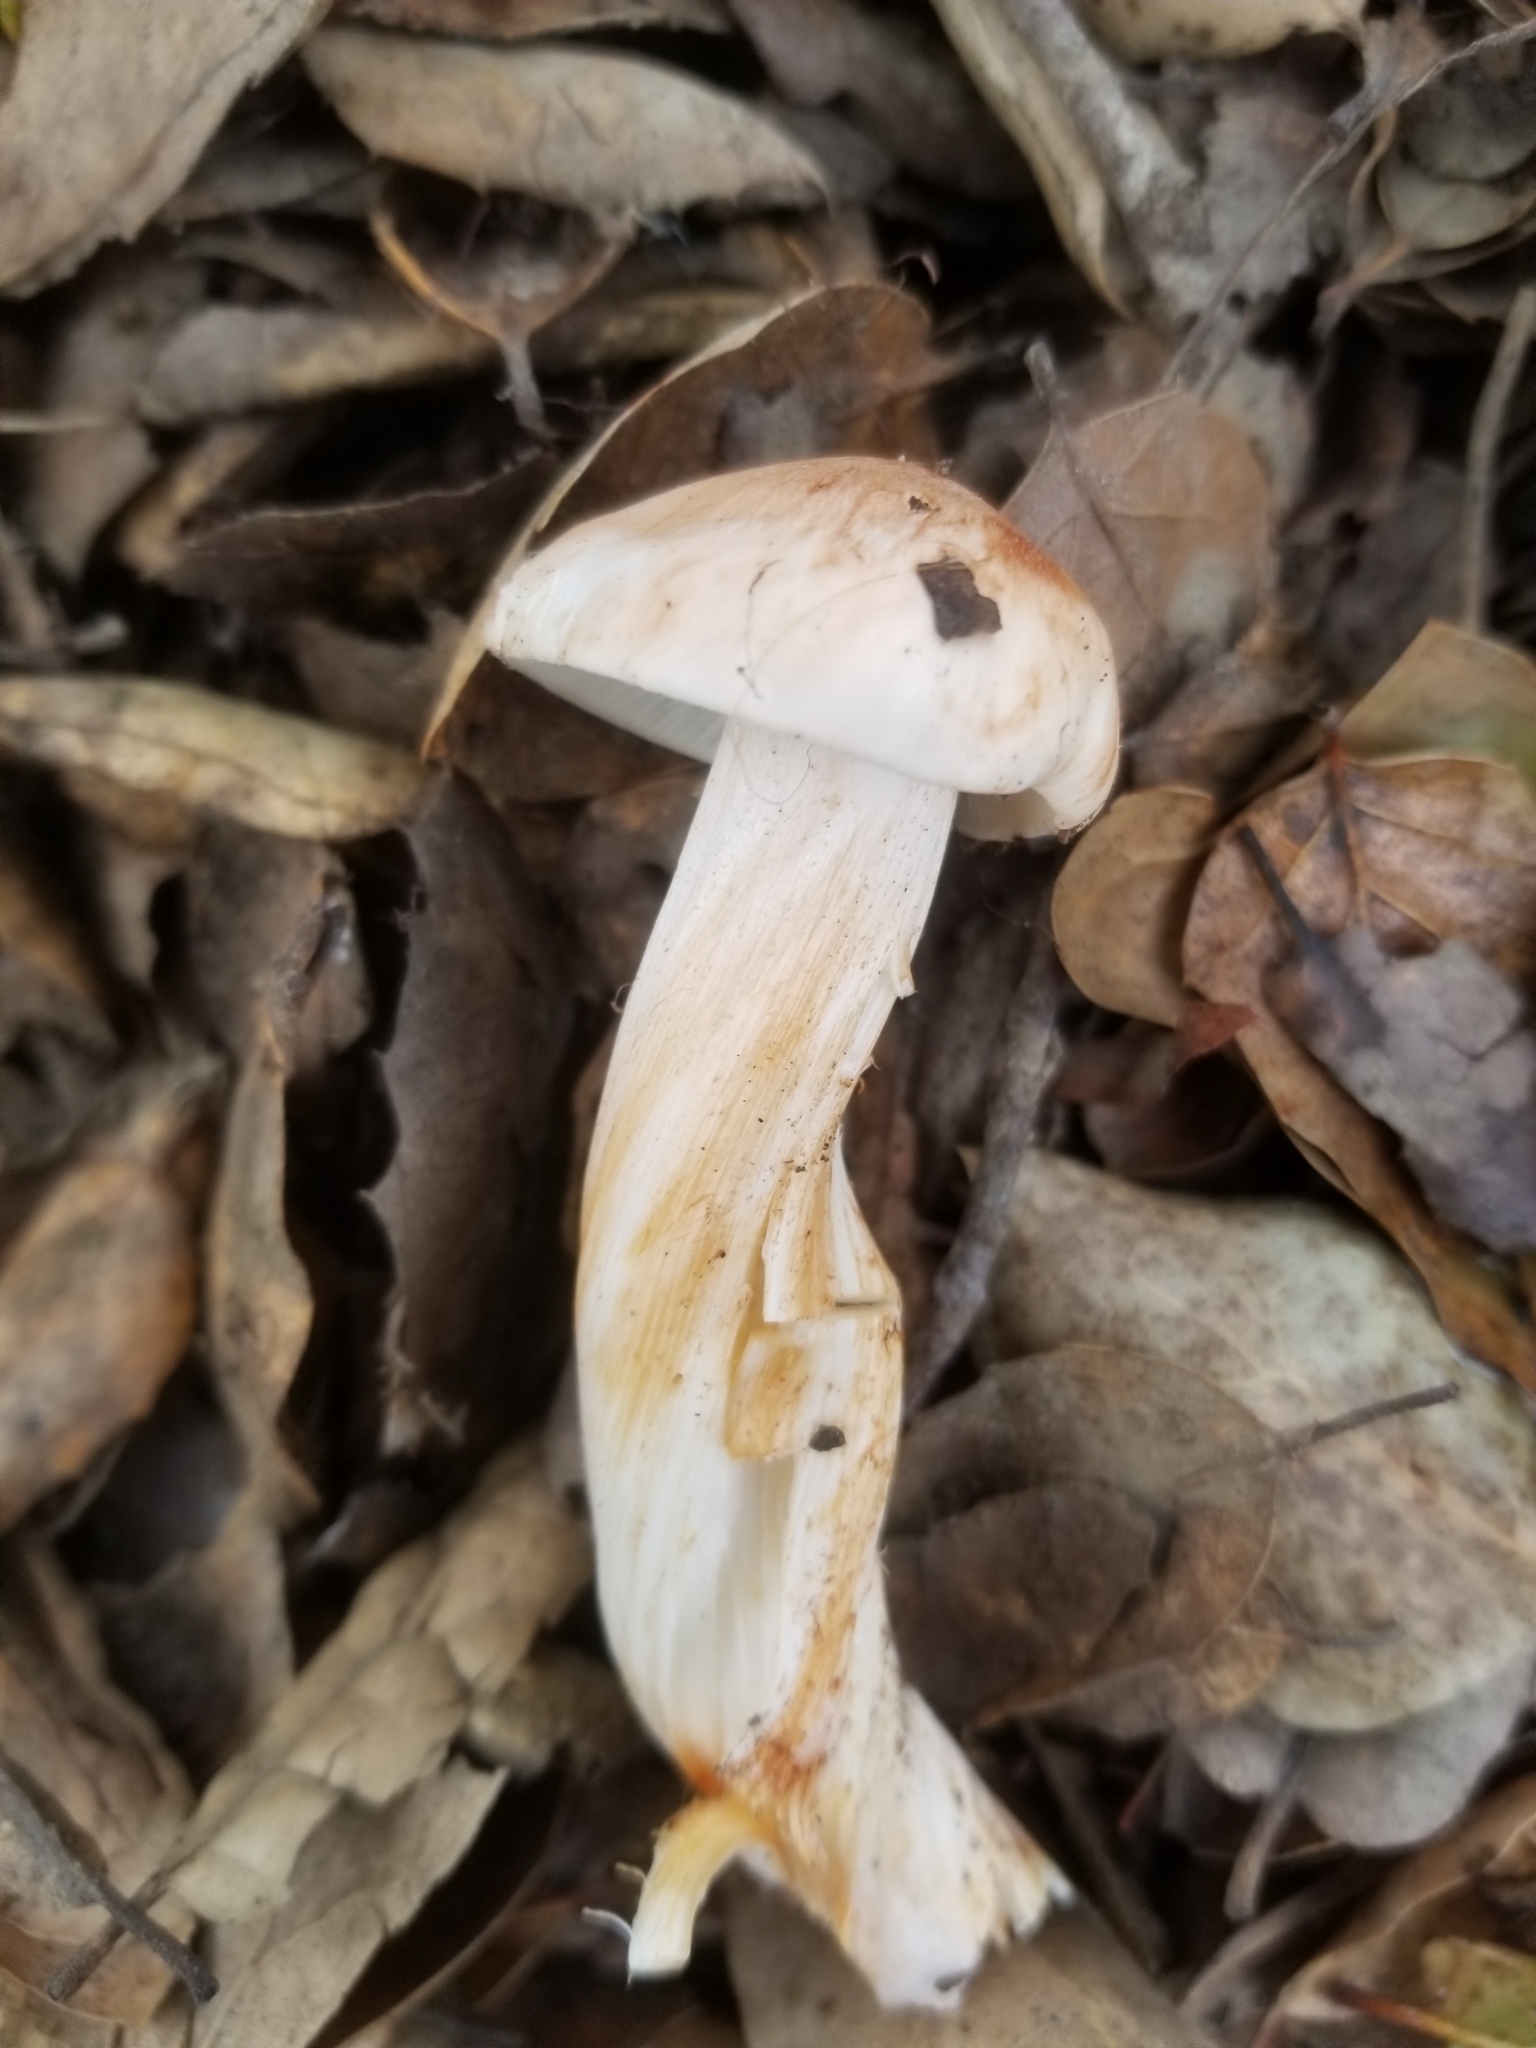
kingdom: Fungi
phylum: Basidiomycota
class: Agaricomycetes
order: Agaricales
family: Tricholomataceae
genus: Melanoleuca
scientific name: Melanoleuca dryophila
